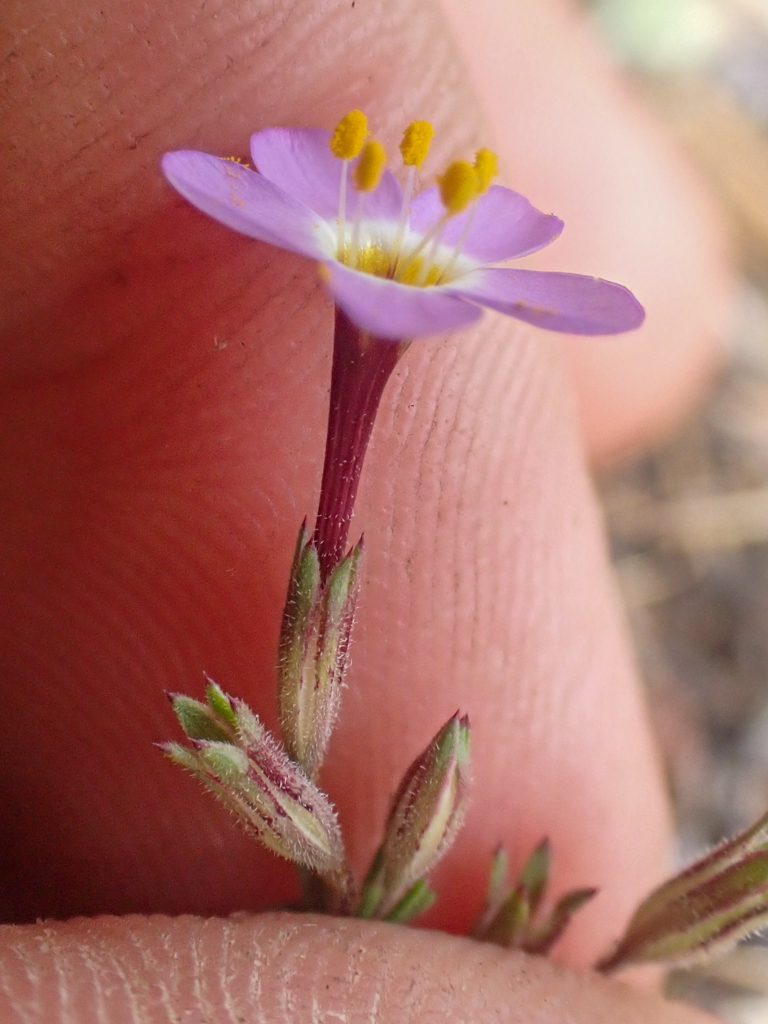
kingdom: Plantae
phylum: Tracheophyta
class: Magnoliopsida
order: Ericales
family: Polemoniaceae
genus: Leptosiphon
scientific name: Leptosiphon ambiguus
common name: Serpentine linanthus
